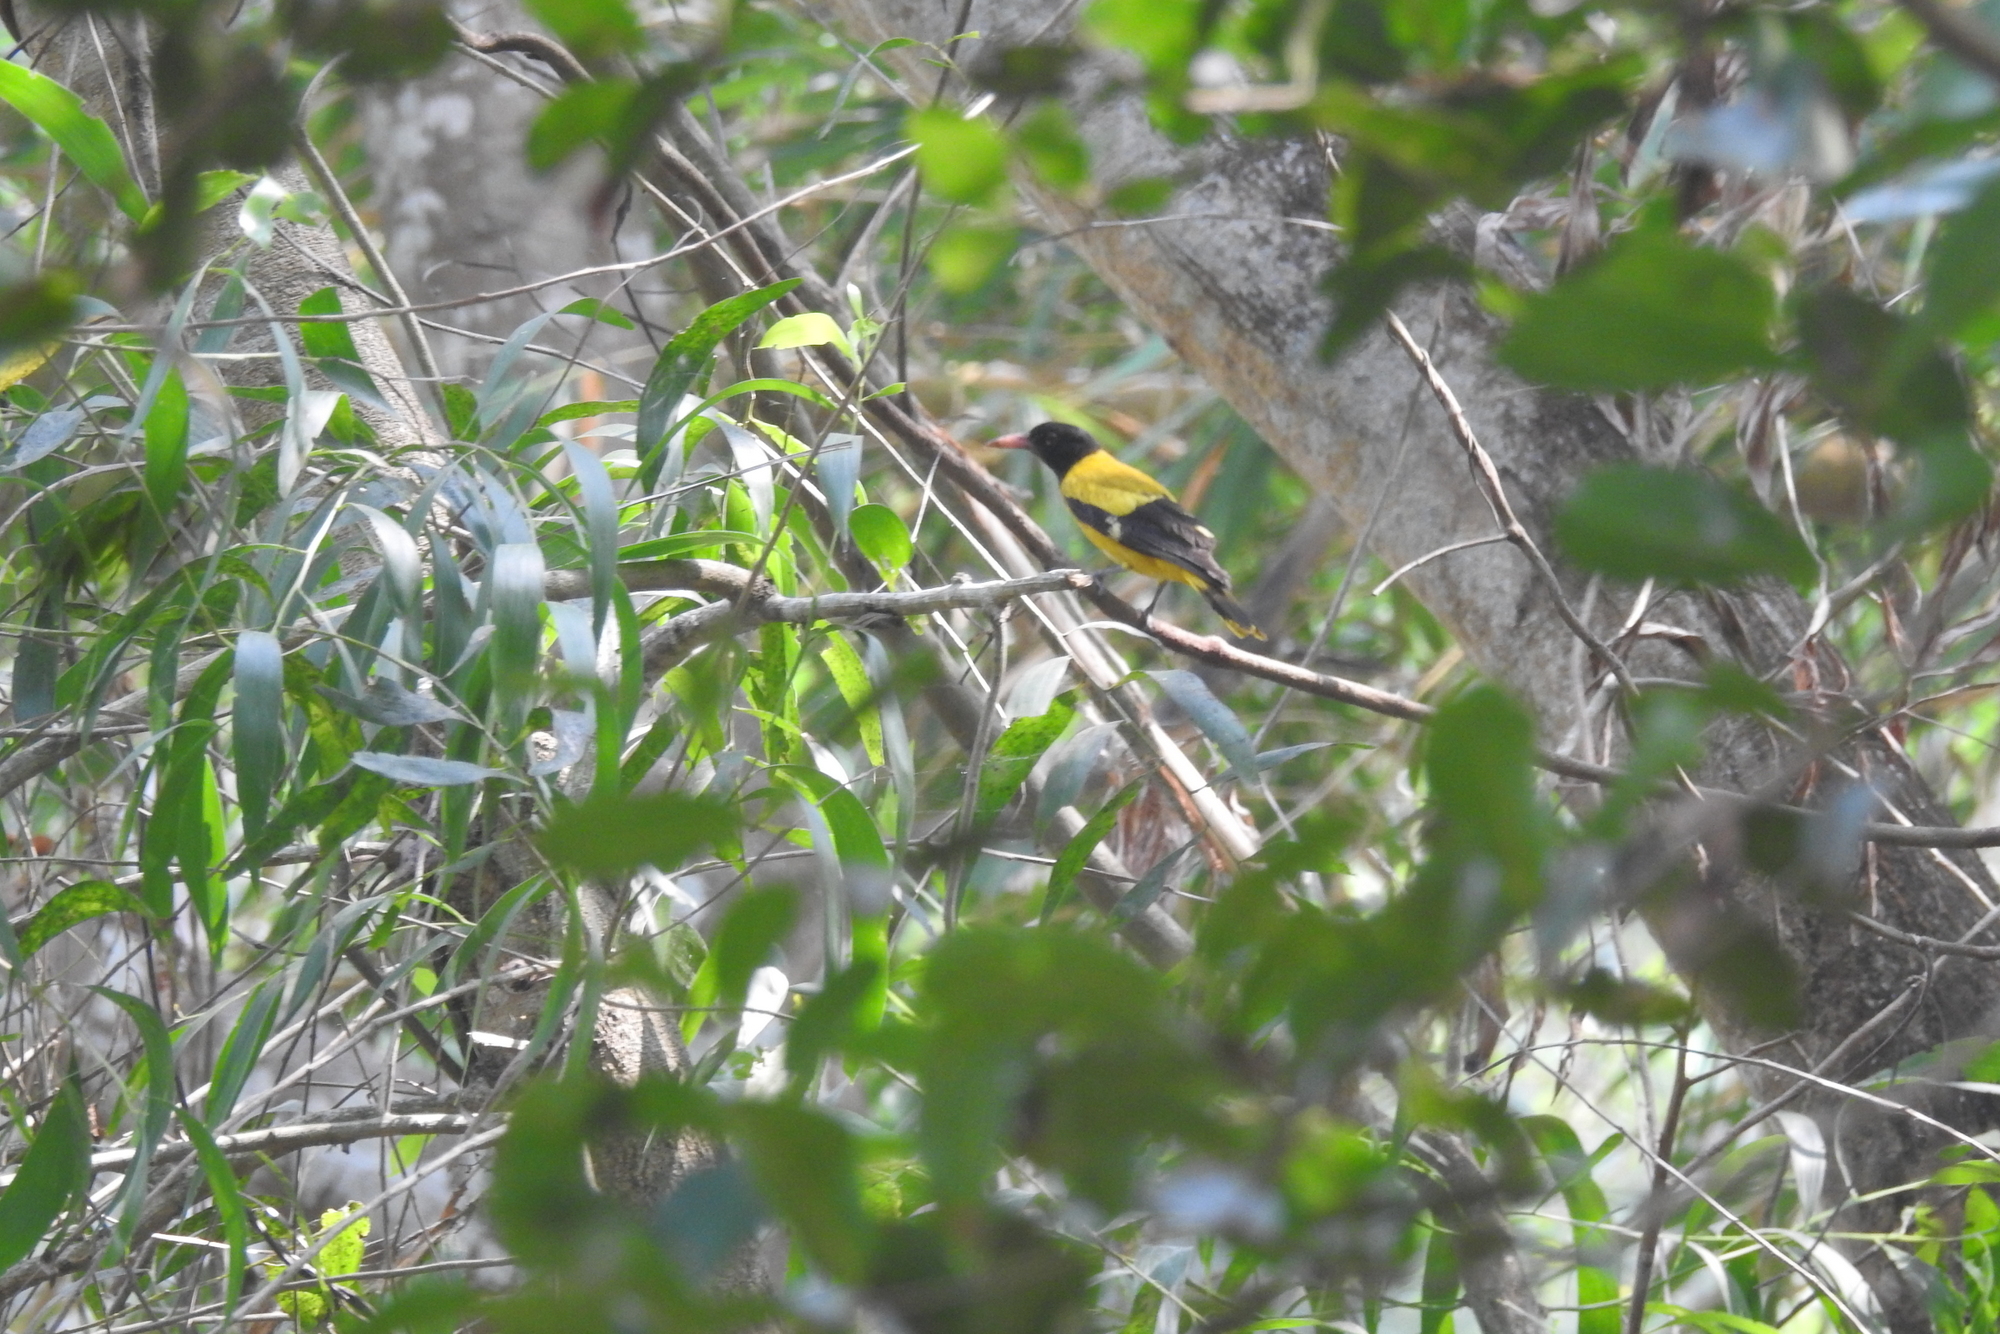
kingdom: Animalia
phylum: Chordata
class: Aves
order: Passeriformes
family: Oriolidae
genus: Oriolus
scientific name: Oriolus xanthornus
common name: Black-hooded oriole
